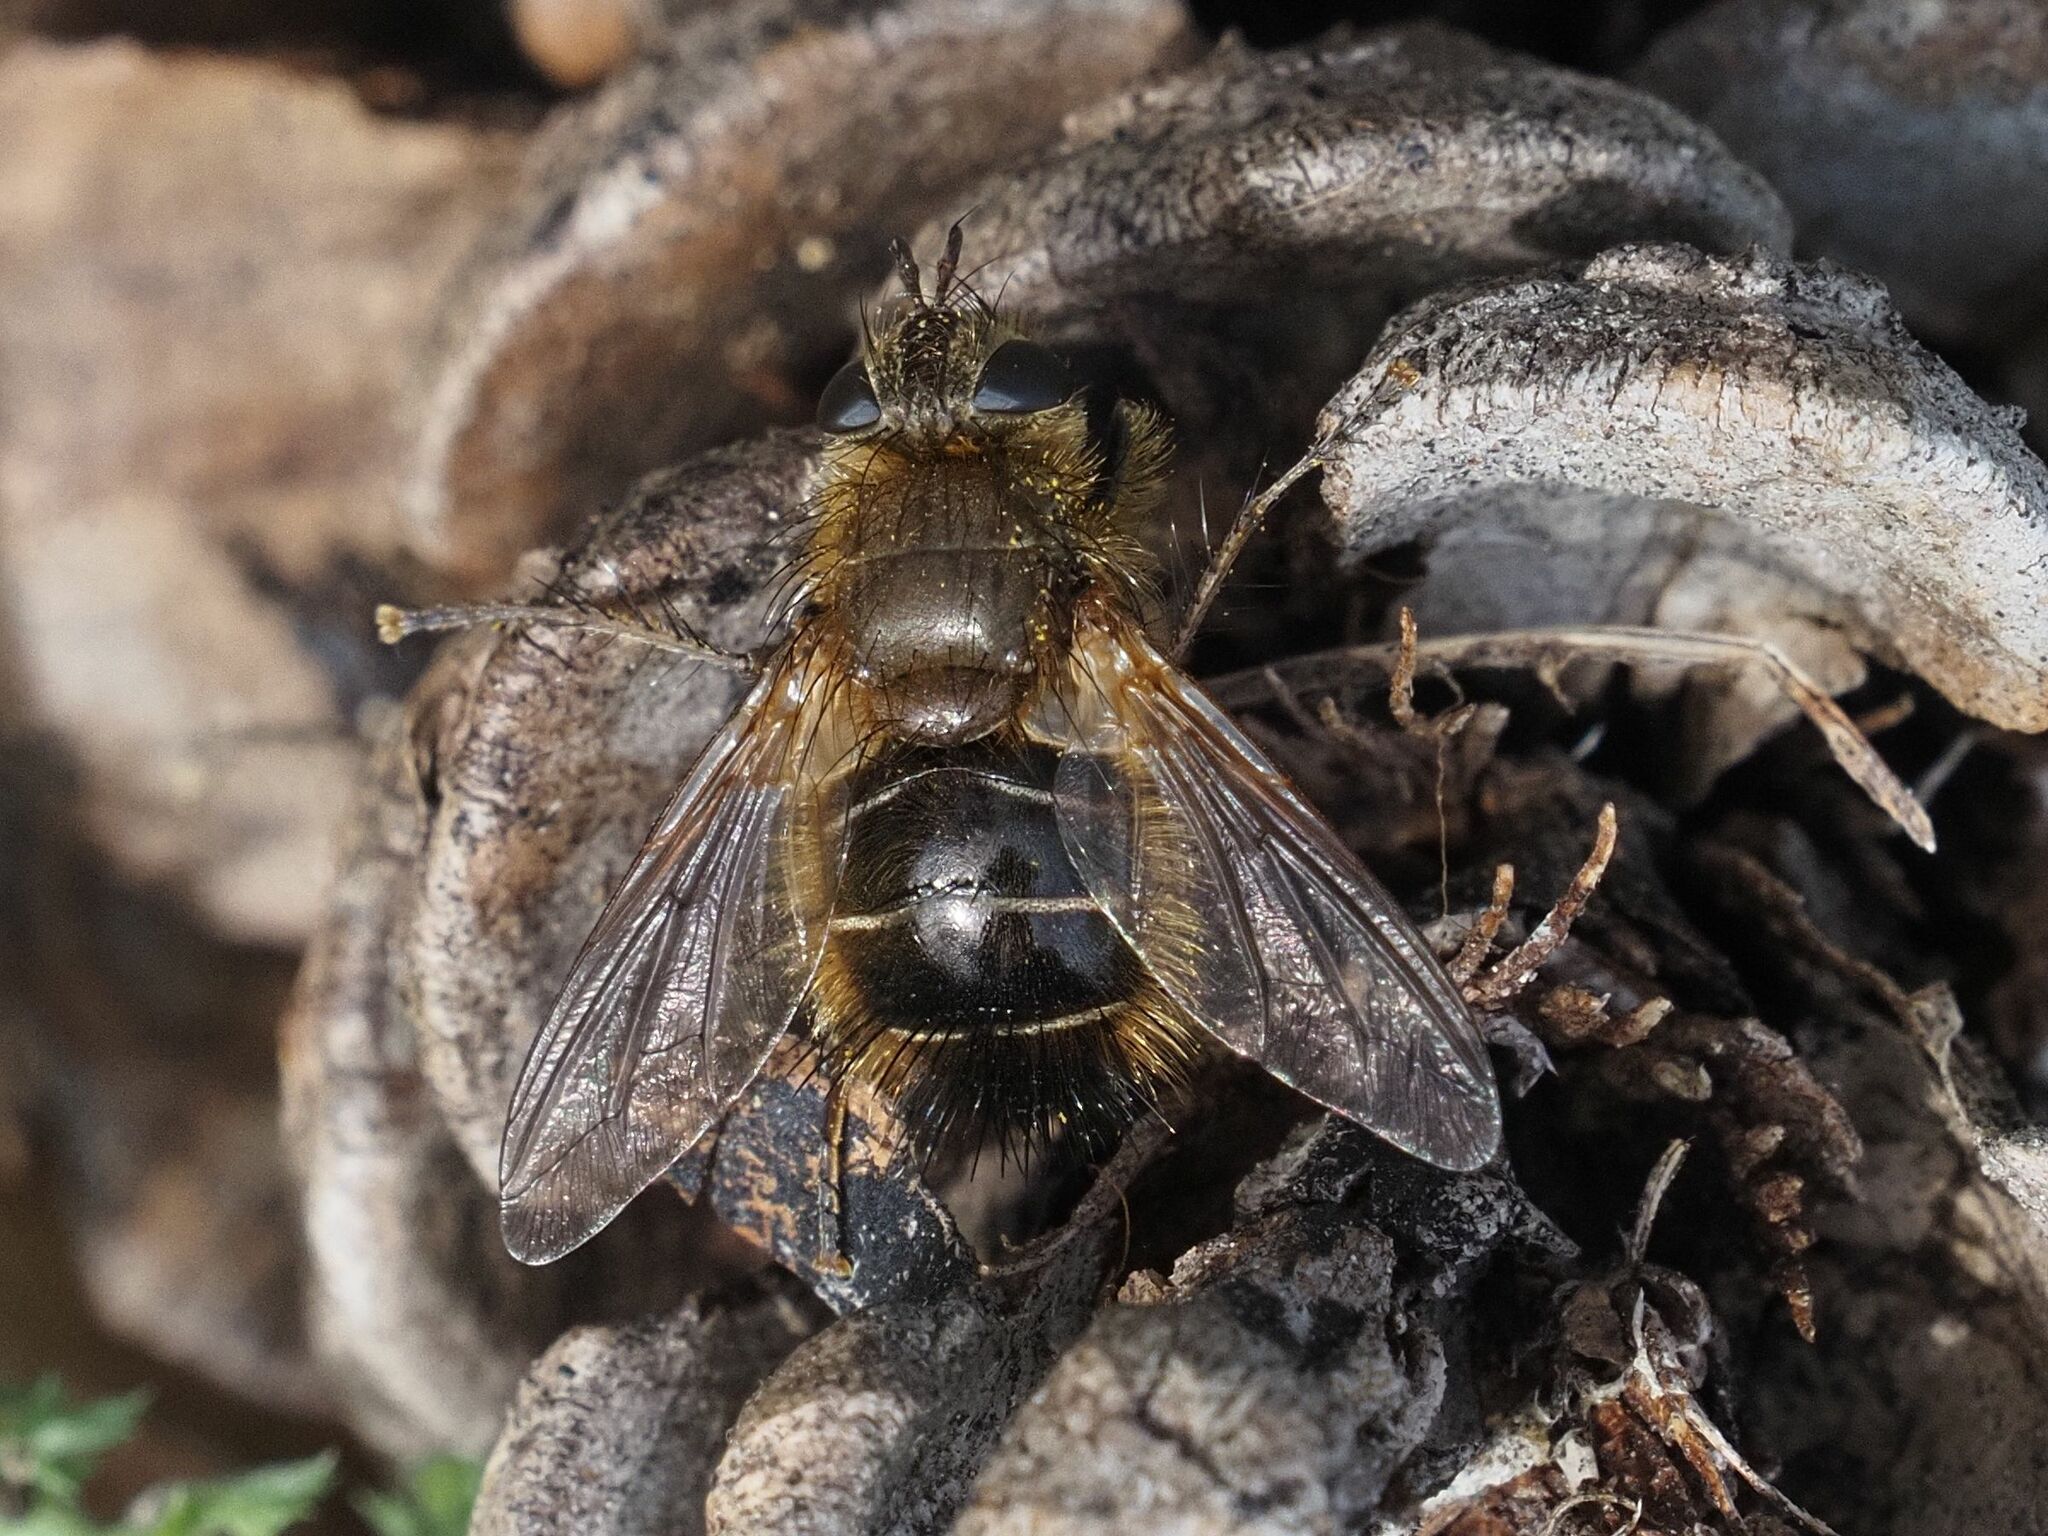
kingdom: Animalia
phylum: Arthropoda
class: Insecta
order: Diptera
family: Tachinidae
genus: Tachina
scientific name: Tachina ursina
